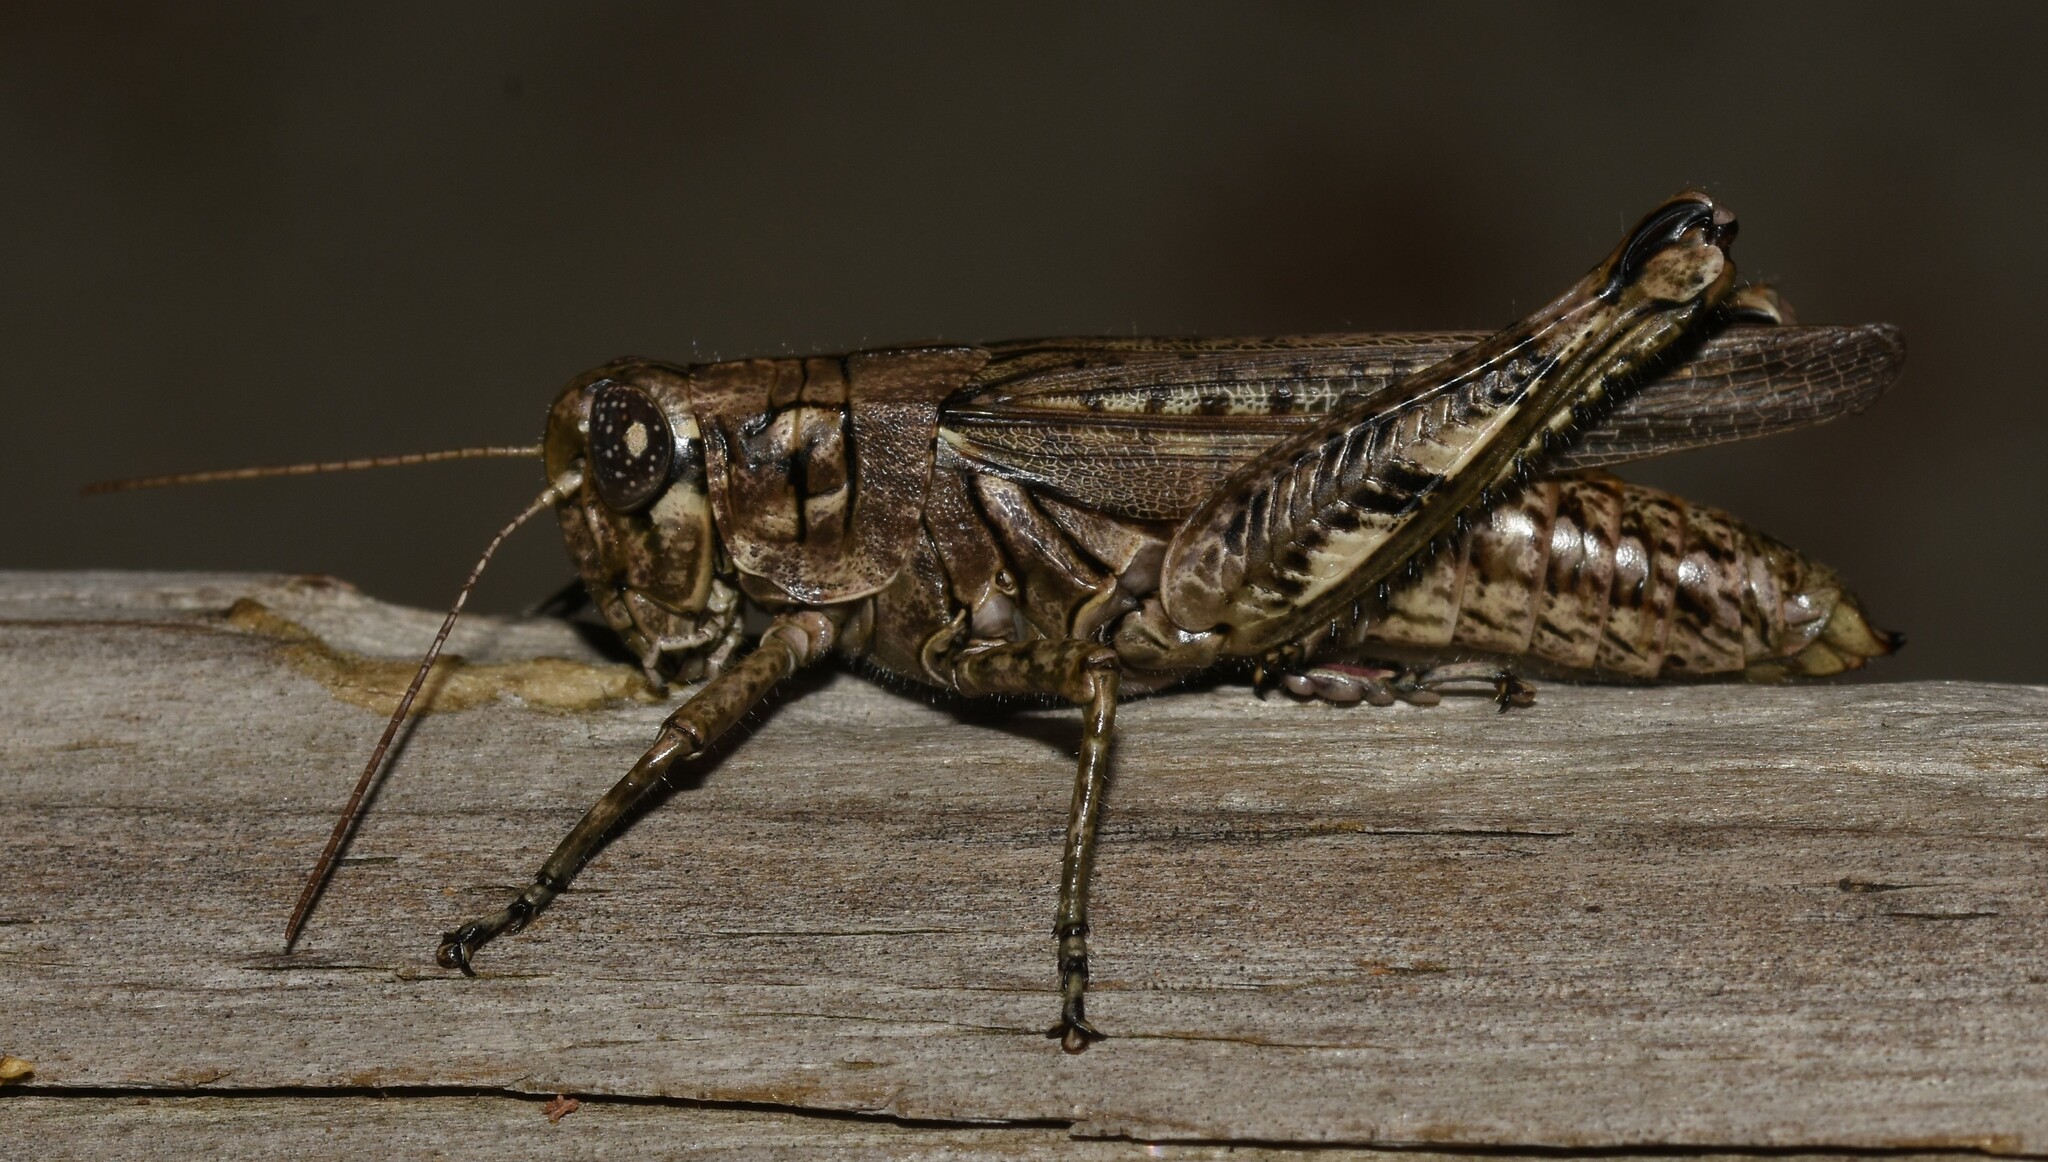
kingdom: Animalia
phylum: Arthropoda
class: Insecta
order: Orthoptera
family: Acrididae
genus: Melanoplus
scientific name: Melanoplus macclungi
